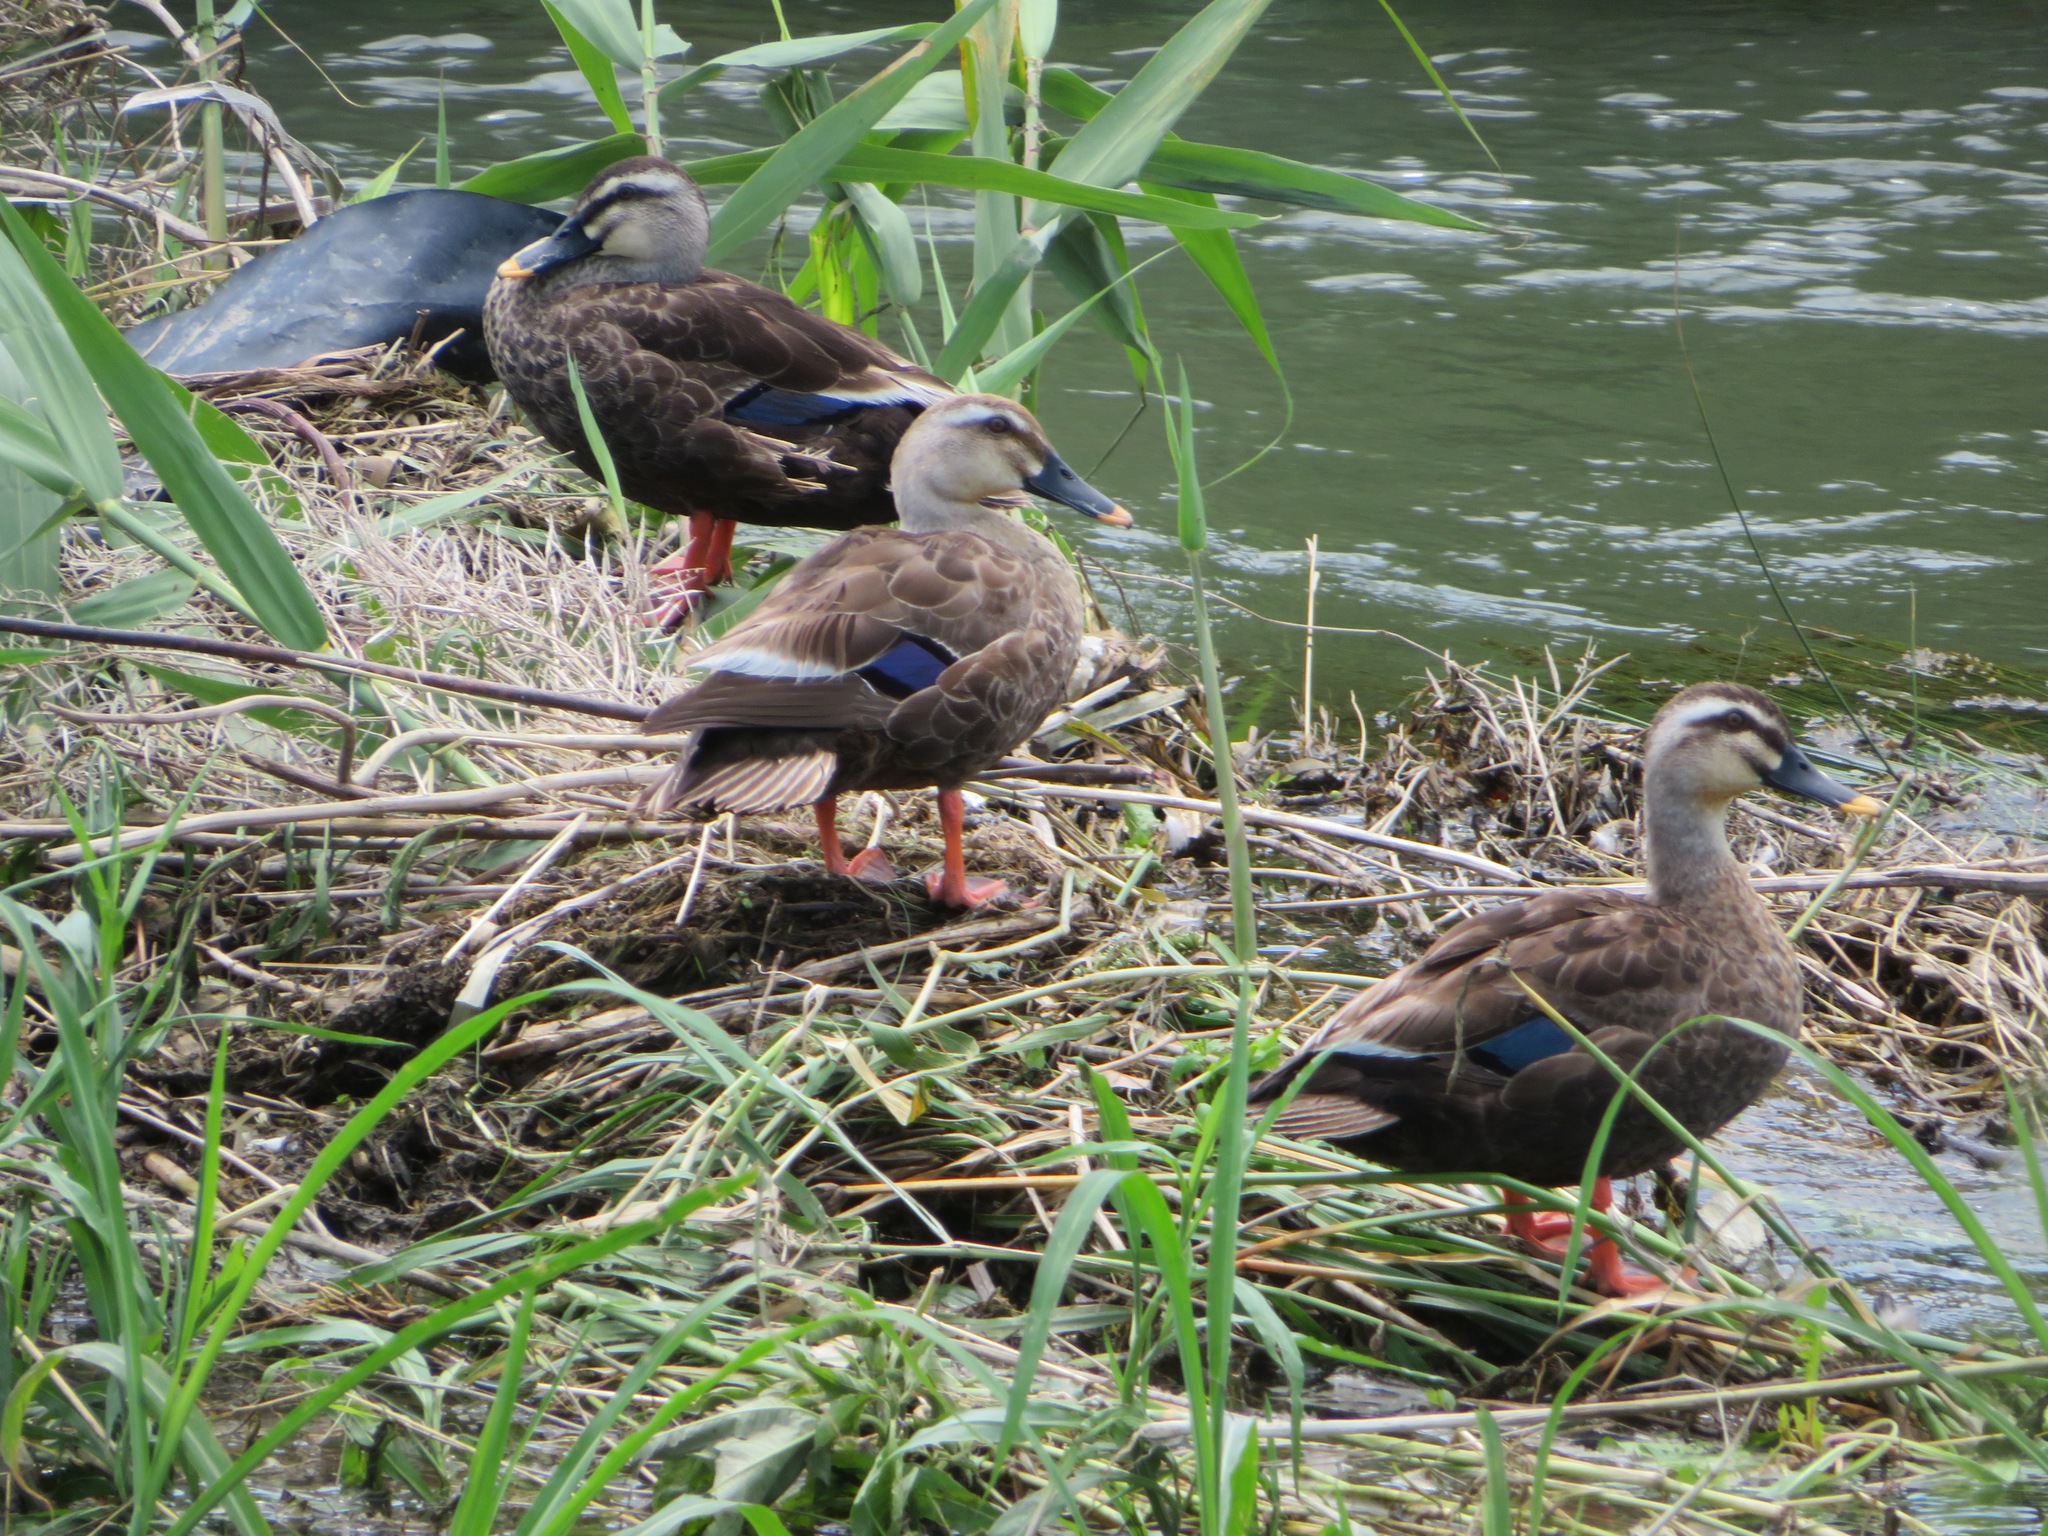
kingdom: Animalia
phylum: Chordata
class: Aves
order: Anseriformes
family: Anatidae
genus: Anas
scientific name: Anas zonorhyncha
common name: Eastern spot-billed duck
